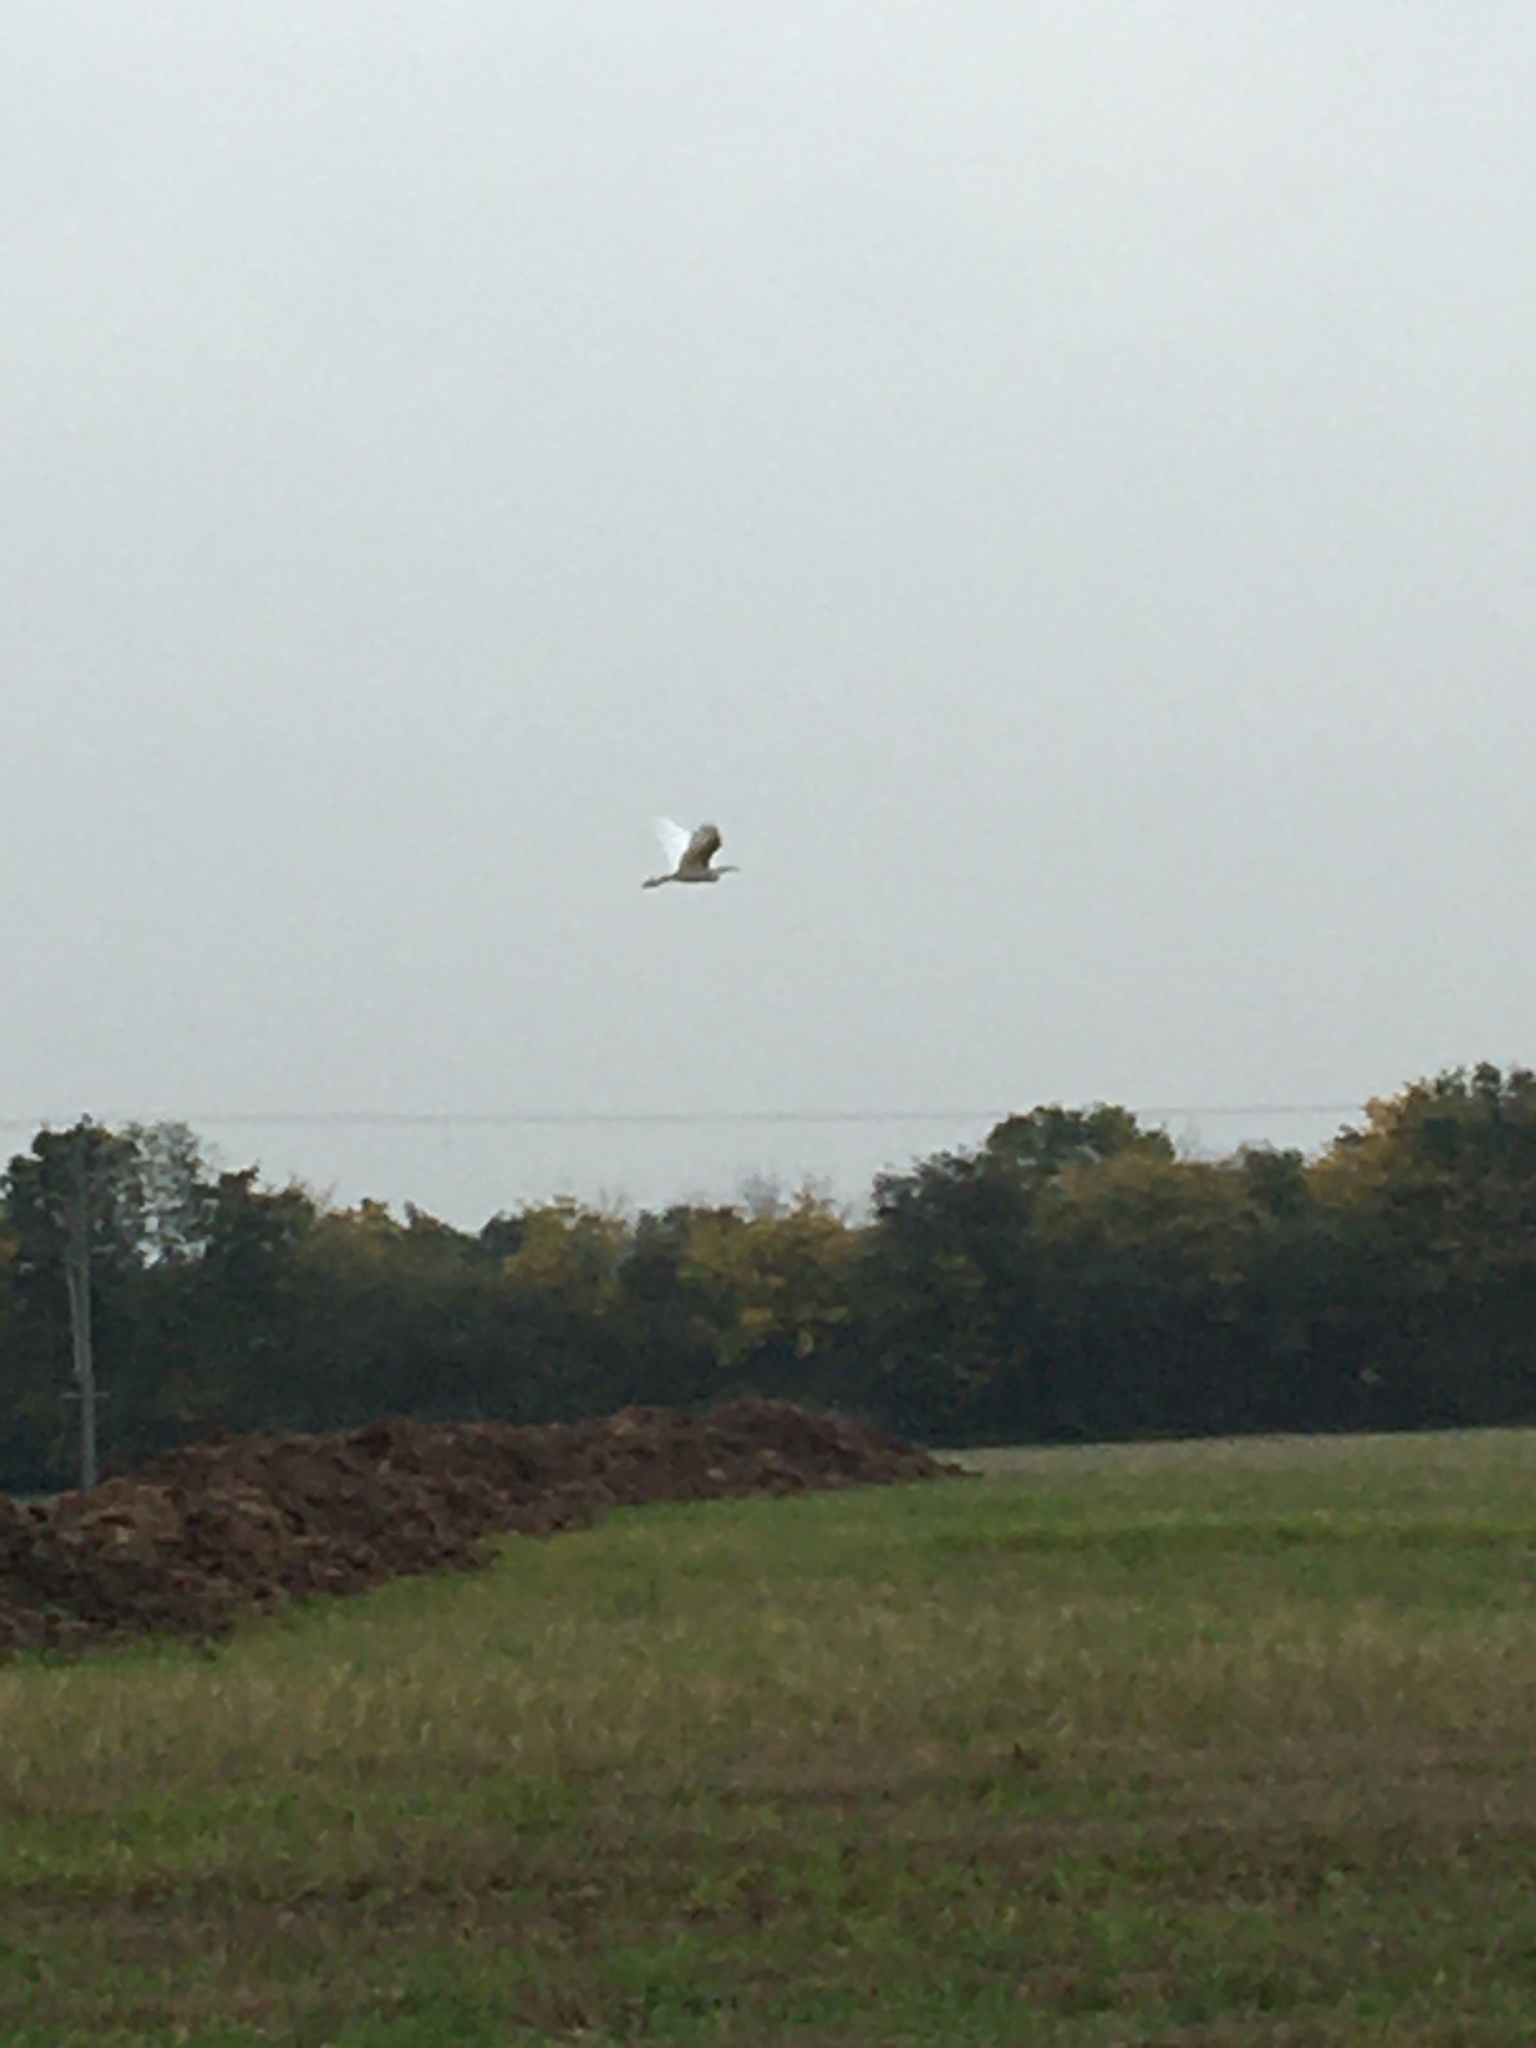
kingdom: Animalia
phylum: Chordata
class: Aves
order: Pelecaniformes
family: Ardeidae
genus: Egretta
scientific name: Egretta garzetta
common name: Little egret
